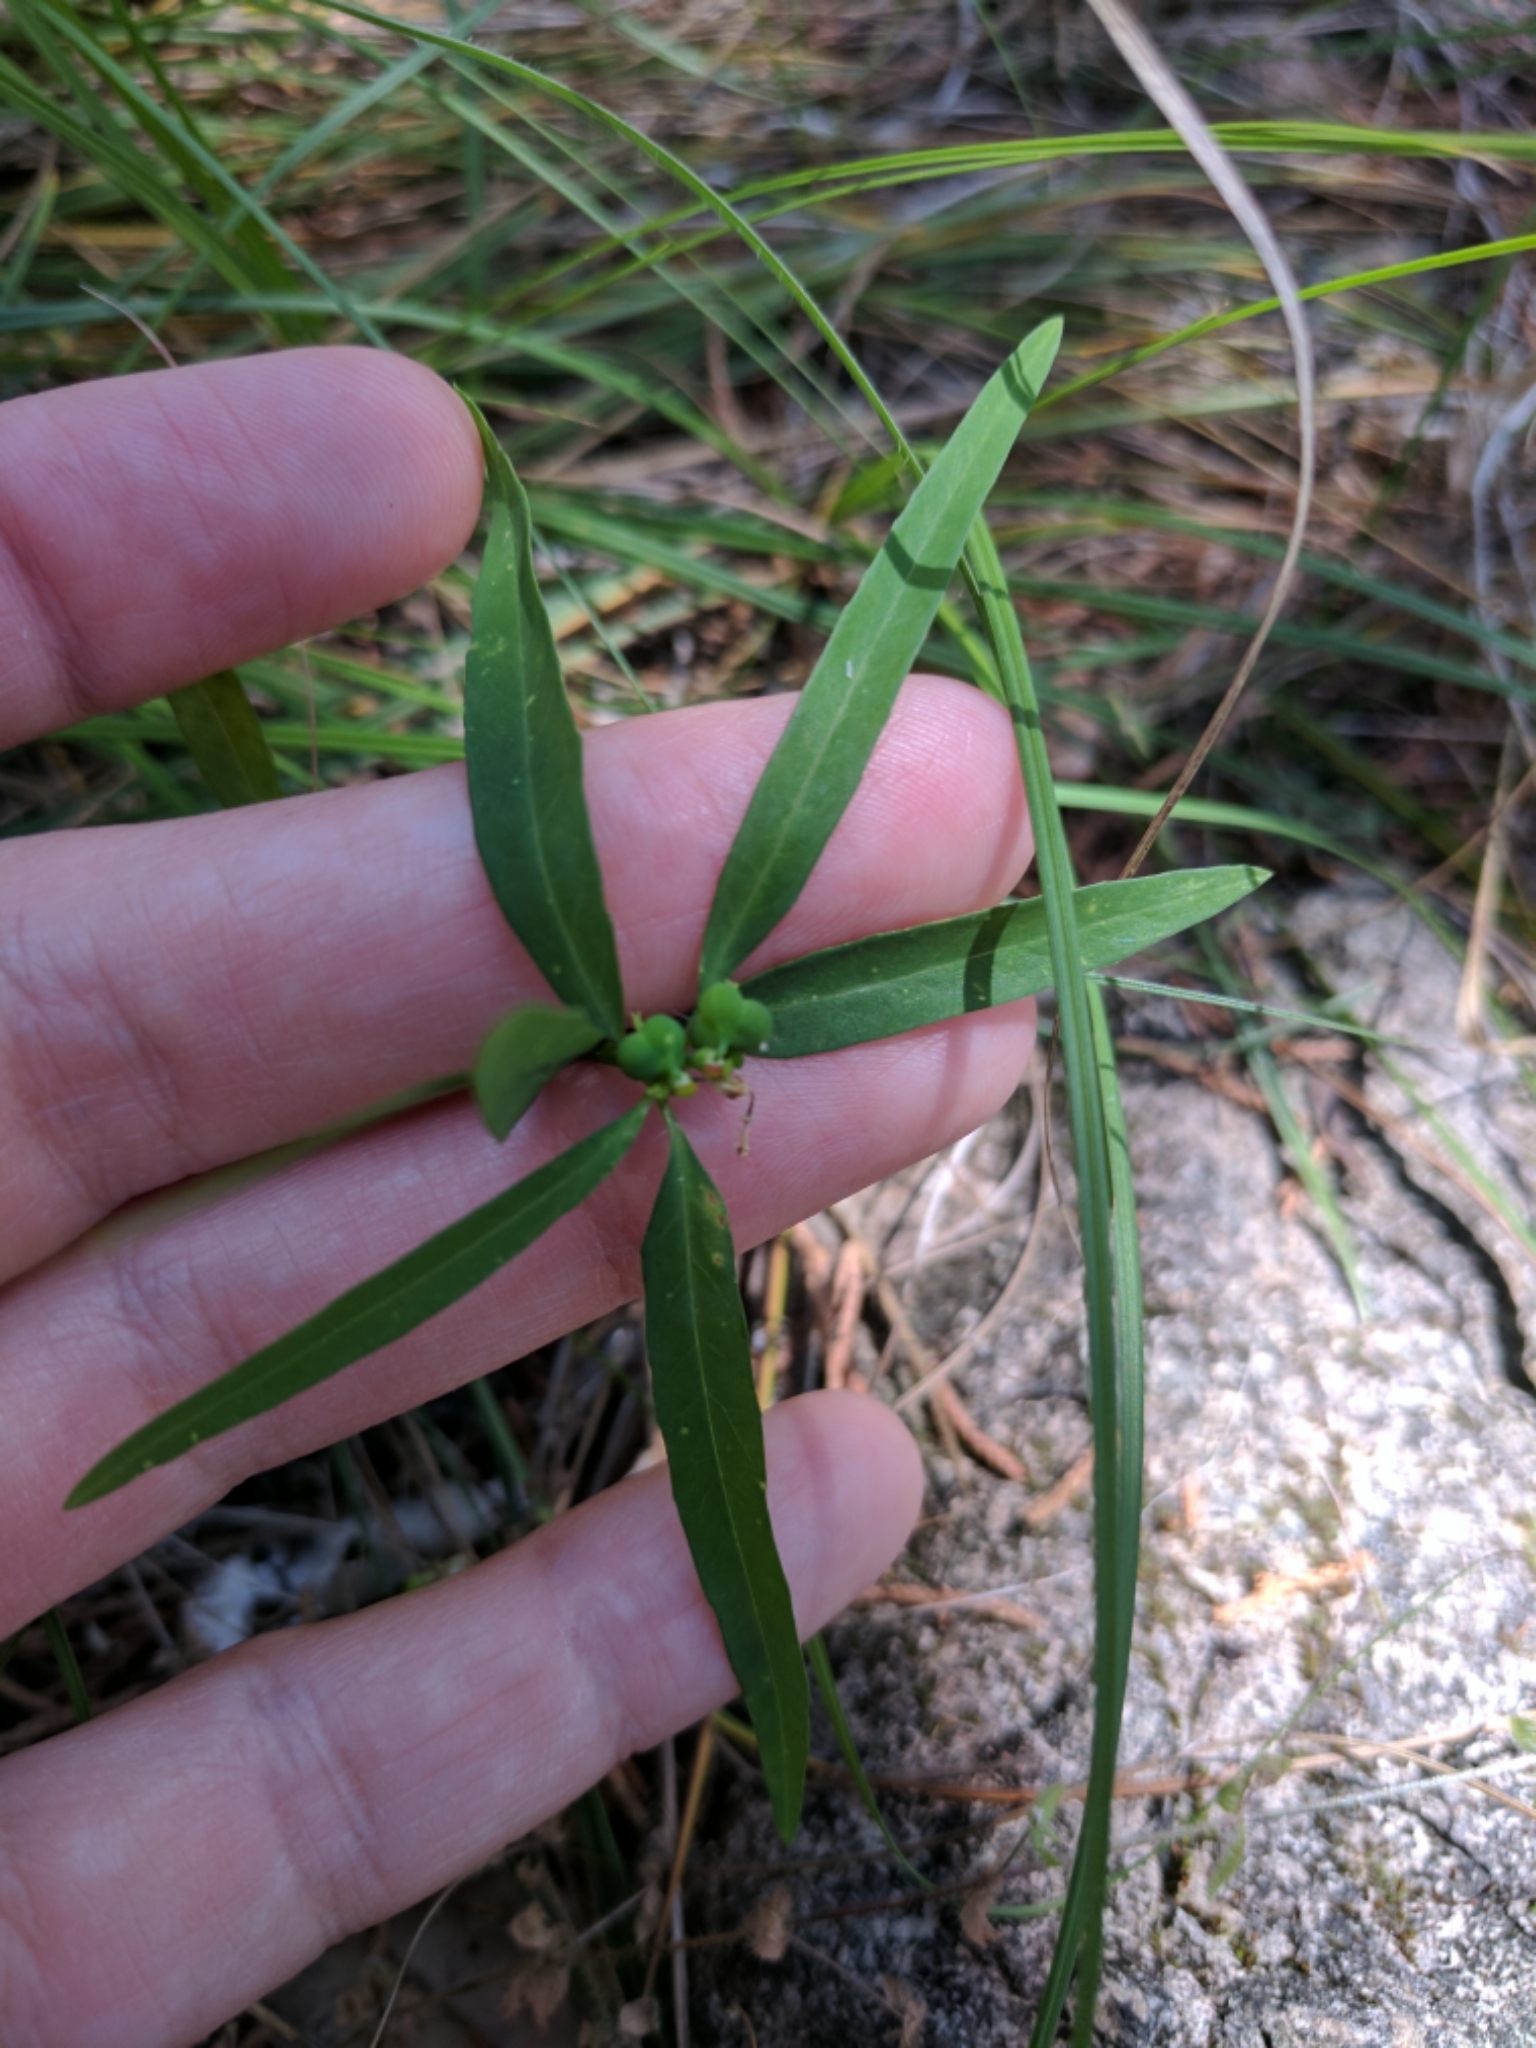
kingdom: Plantae
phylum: Tracheophyta
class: Magnoliopsida
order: Malpighiales
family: Euphorbiaceae
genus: Euphorbia
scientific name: Euphorbia heterophylla
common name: Mexican fireplant
